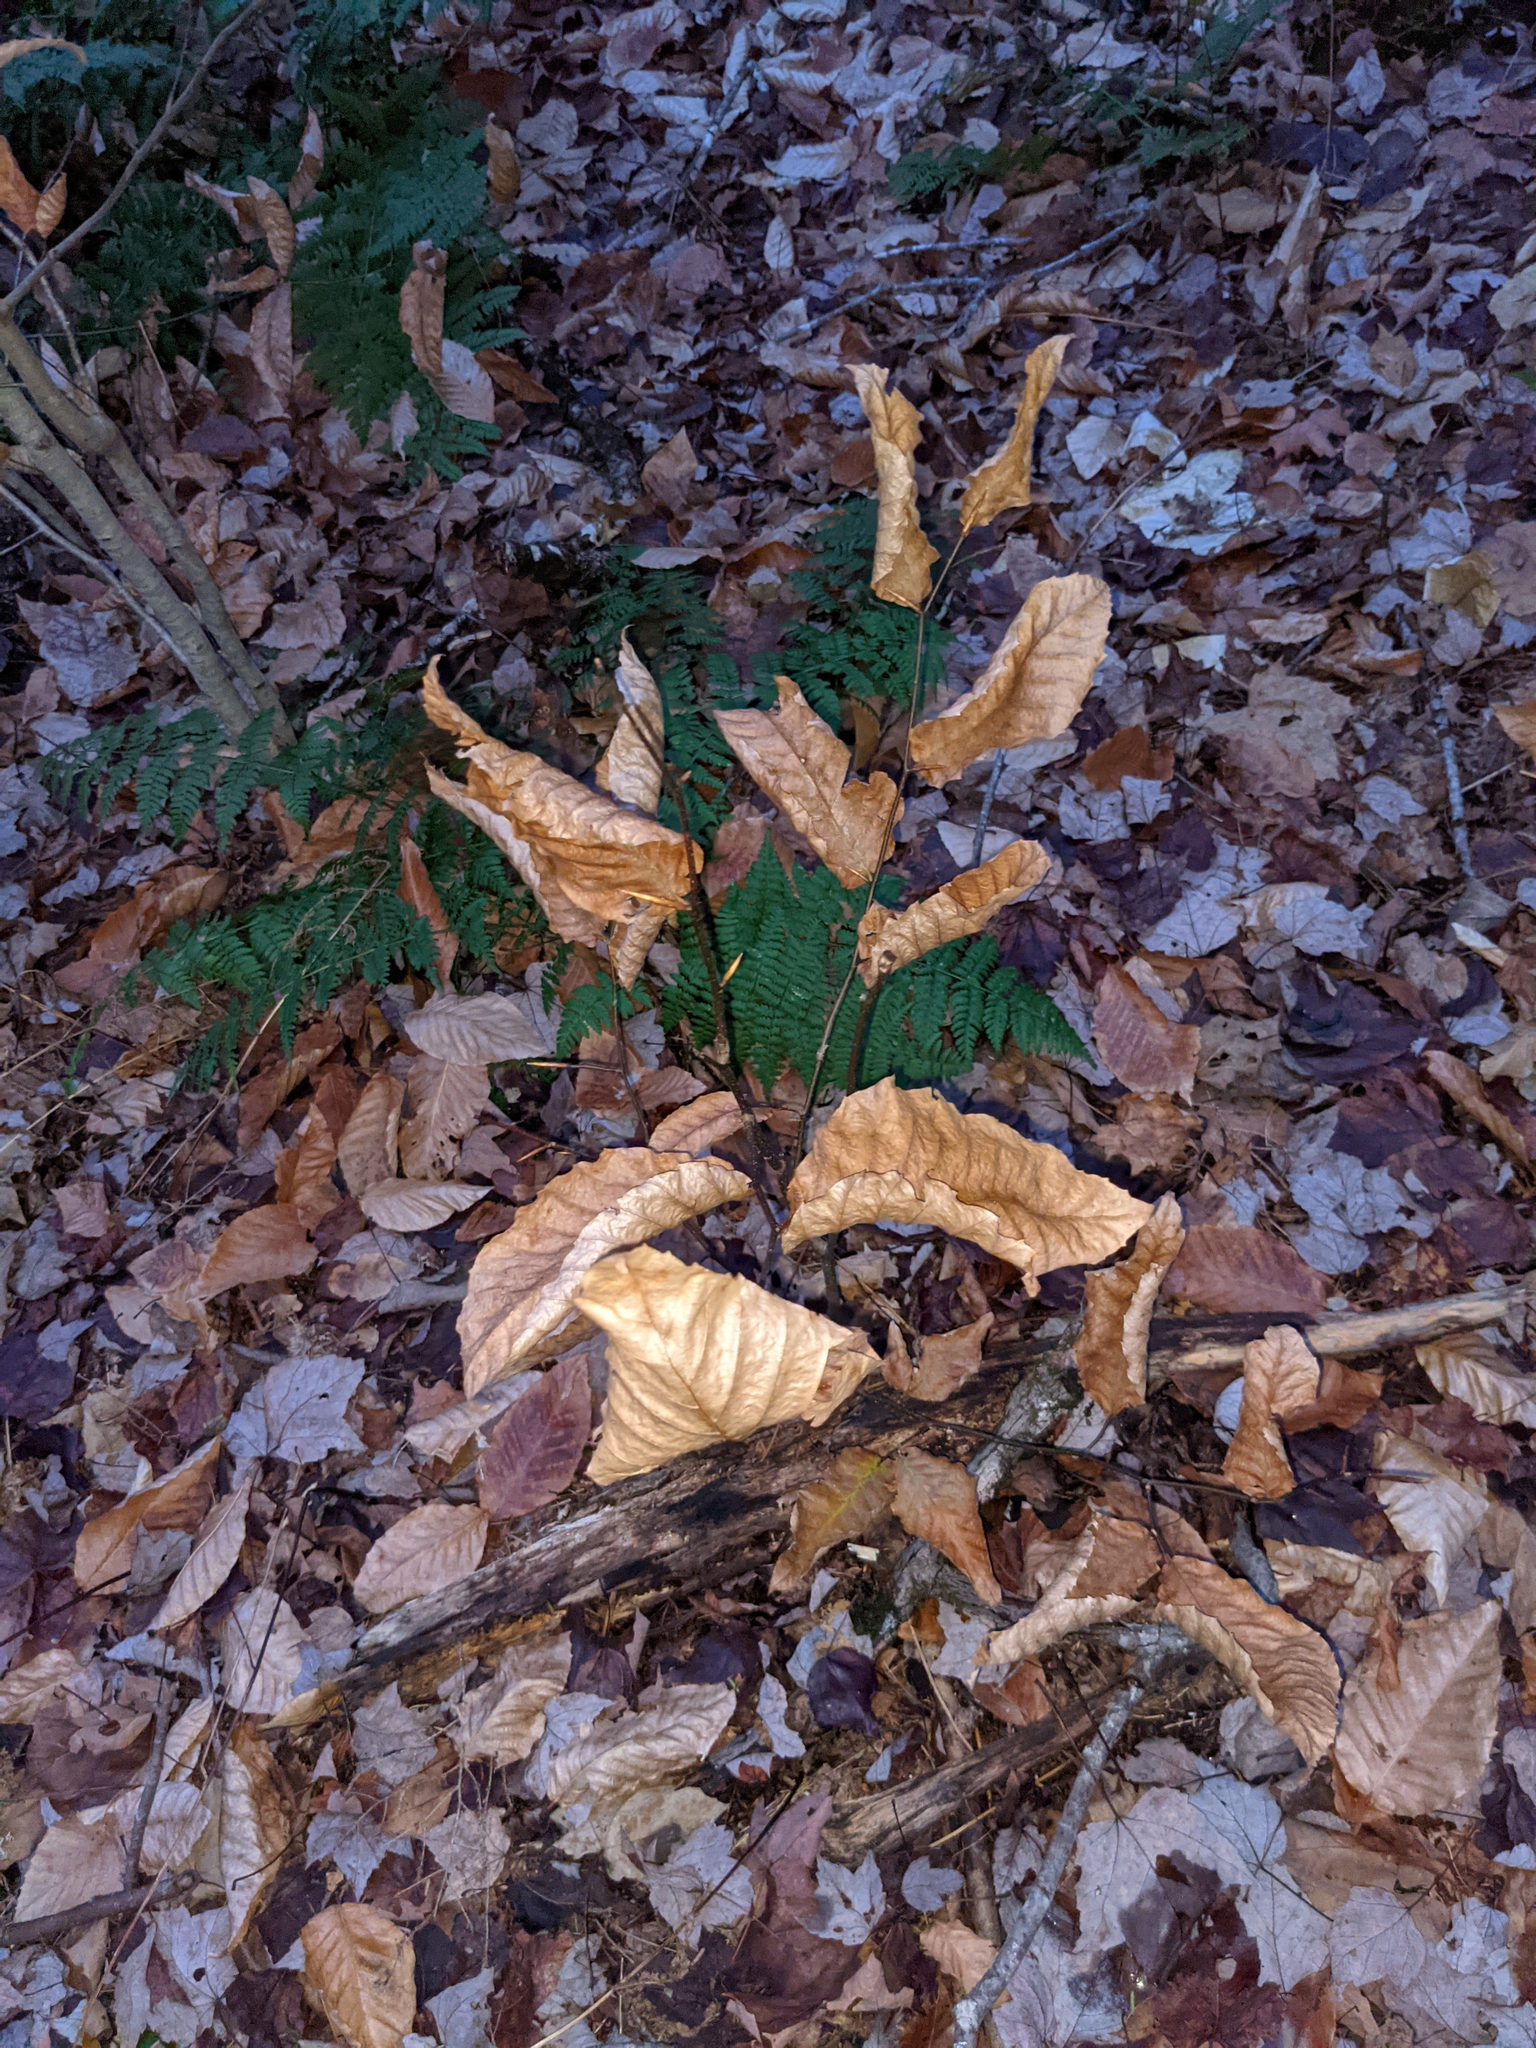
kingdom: Plantae
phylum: Tracheophyta
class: Magnoliopsida
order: Fagales
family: Fagaceae
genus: Fagus
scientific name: Fagus grandifolia
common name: American beech
